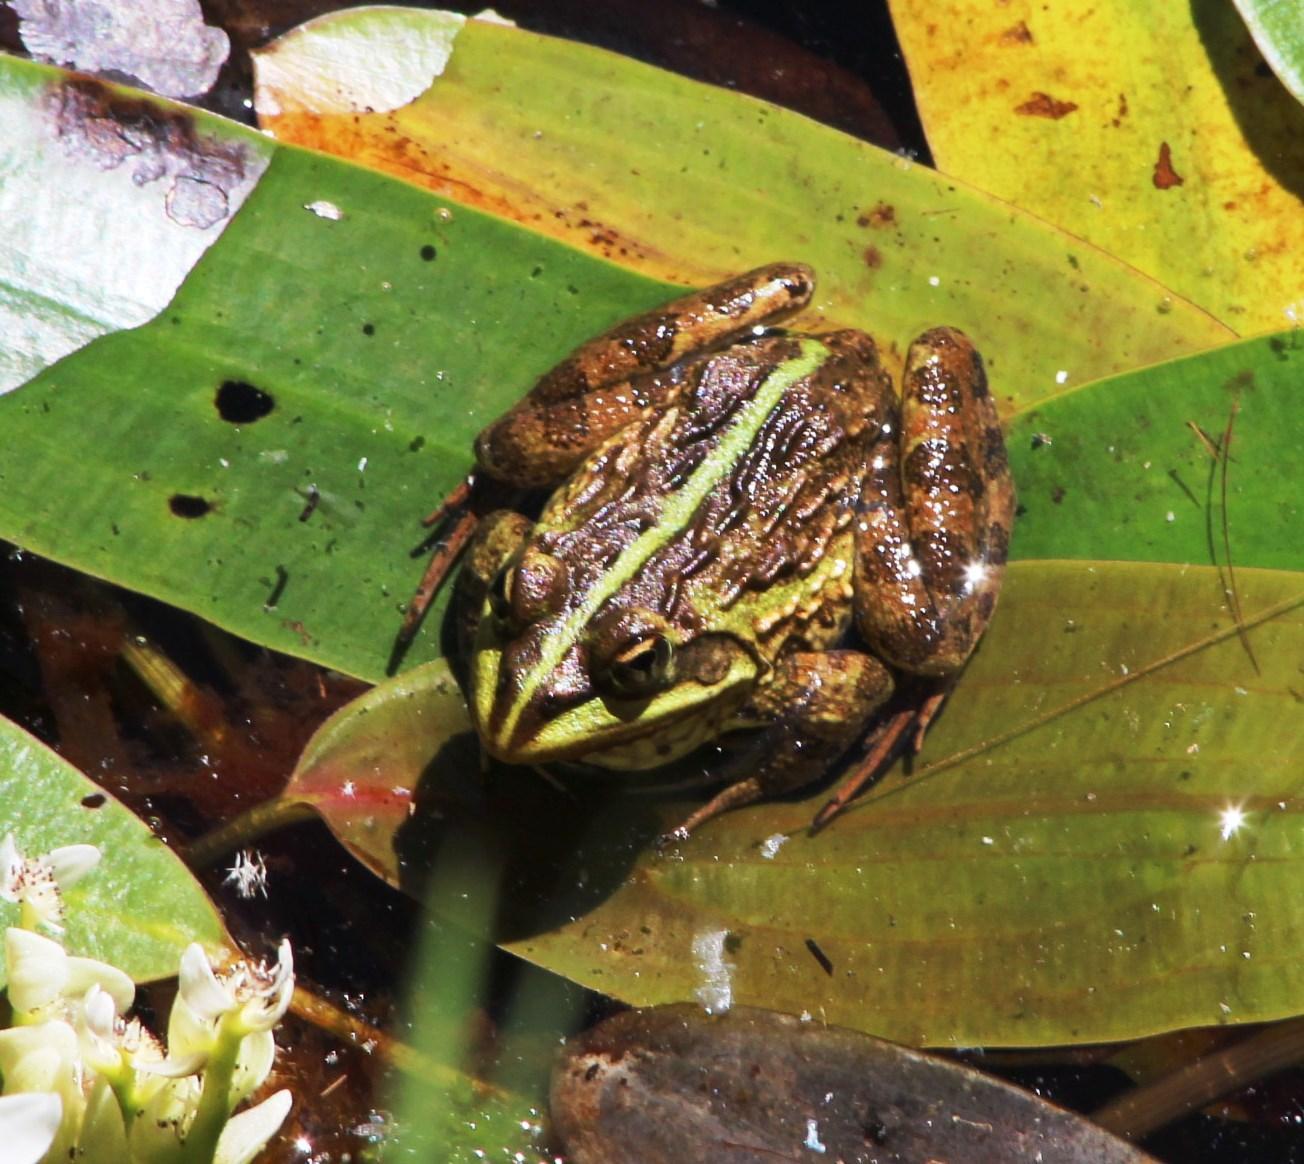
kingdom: Animalia
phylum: Chordata
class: Amphibia
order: Anura
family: Pyxicephalidae
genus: Amietia
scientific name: Amietia fuscigula
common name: Cape rana
